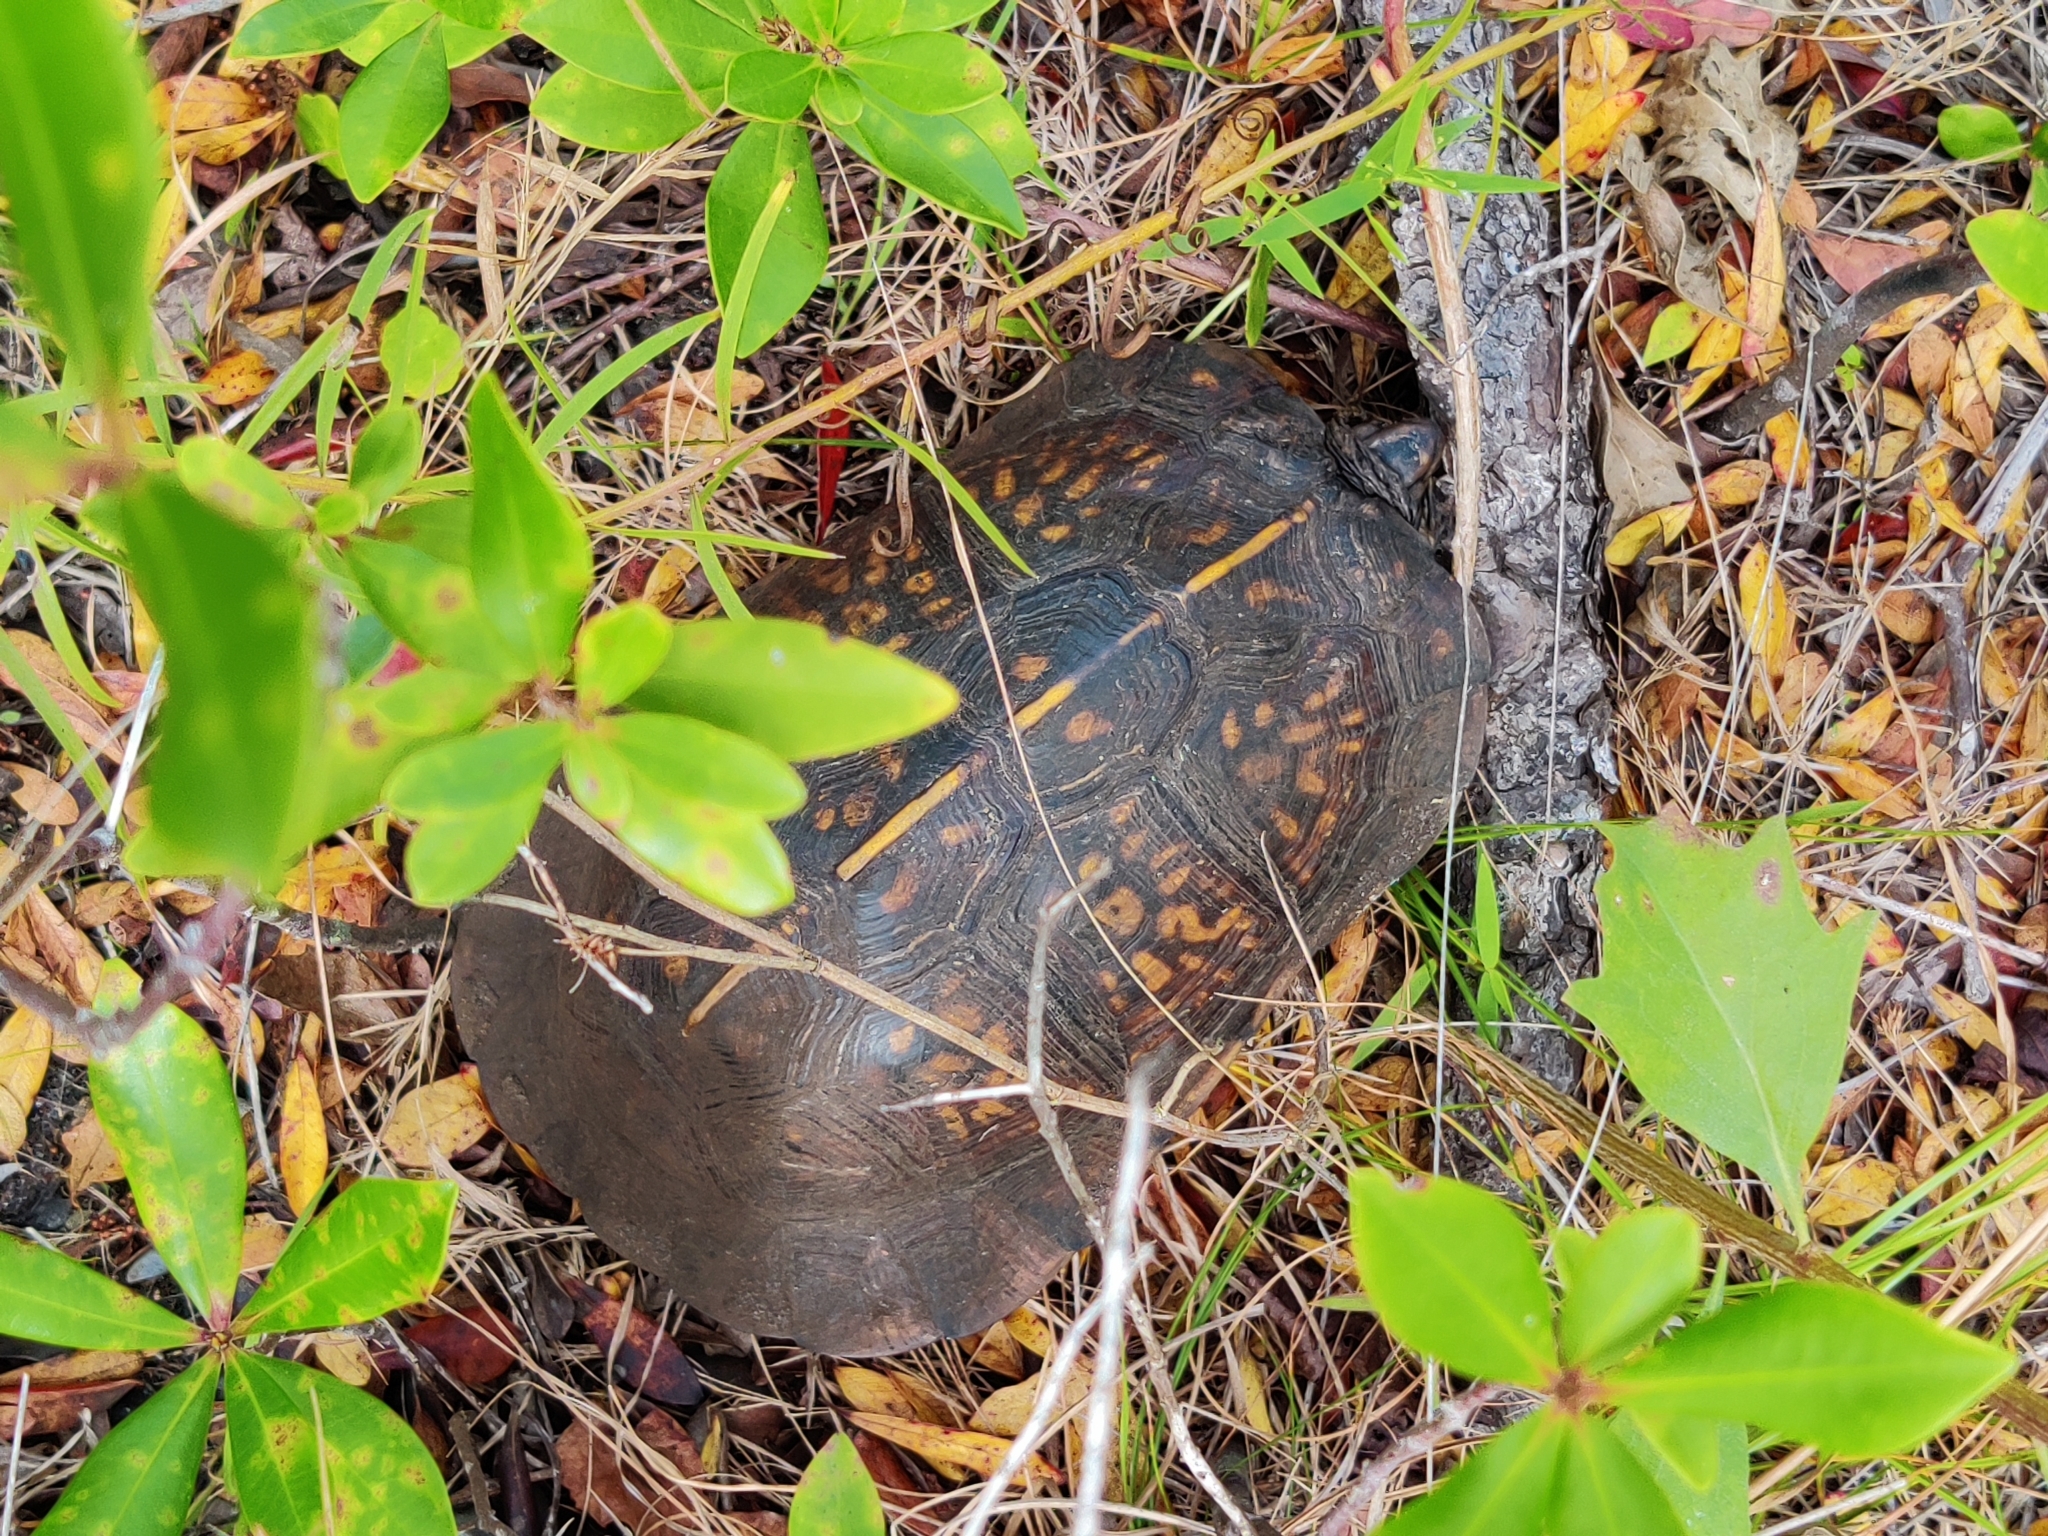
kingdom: Animalia
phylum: Chordata
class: Testudines
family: Emydidae
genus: Terrapene
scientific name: Terrapene carolina
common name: Common box turtle
